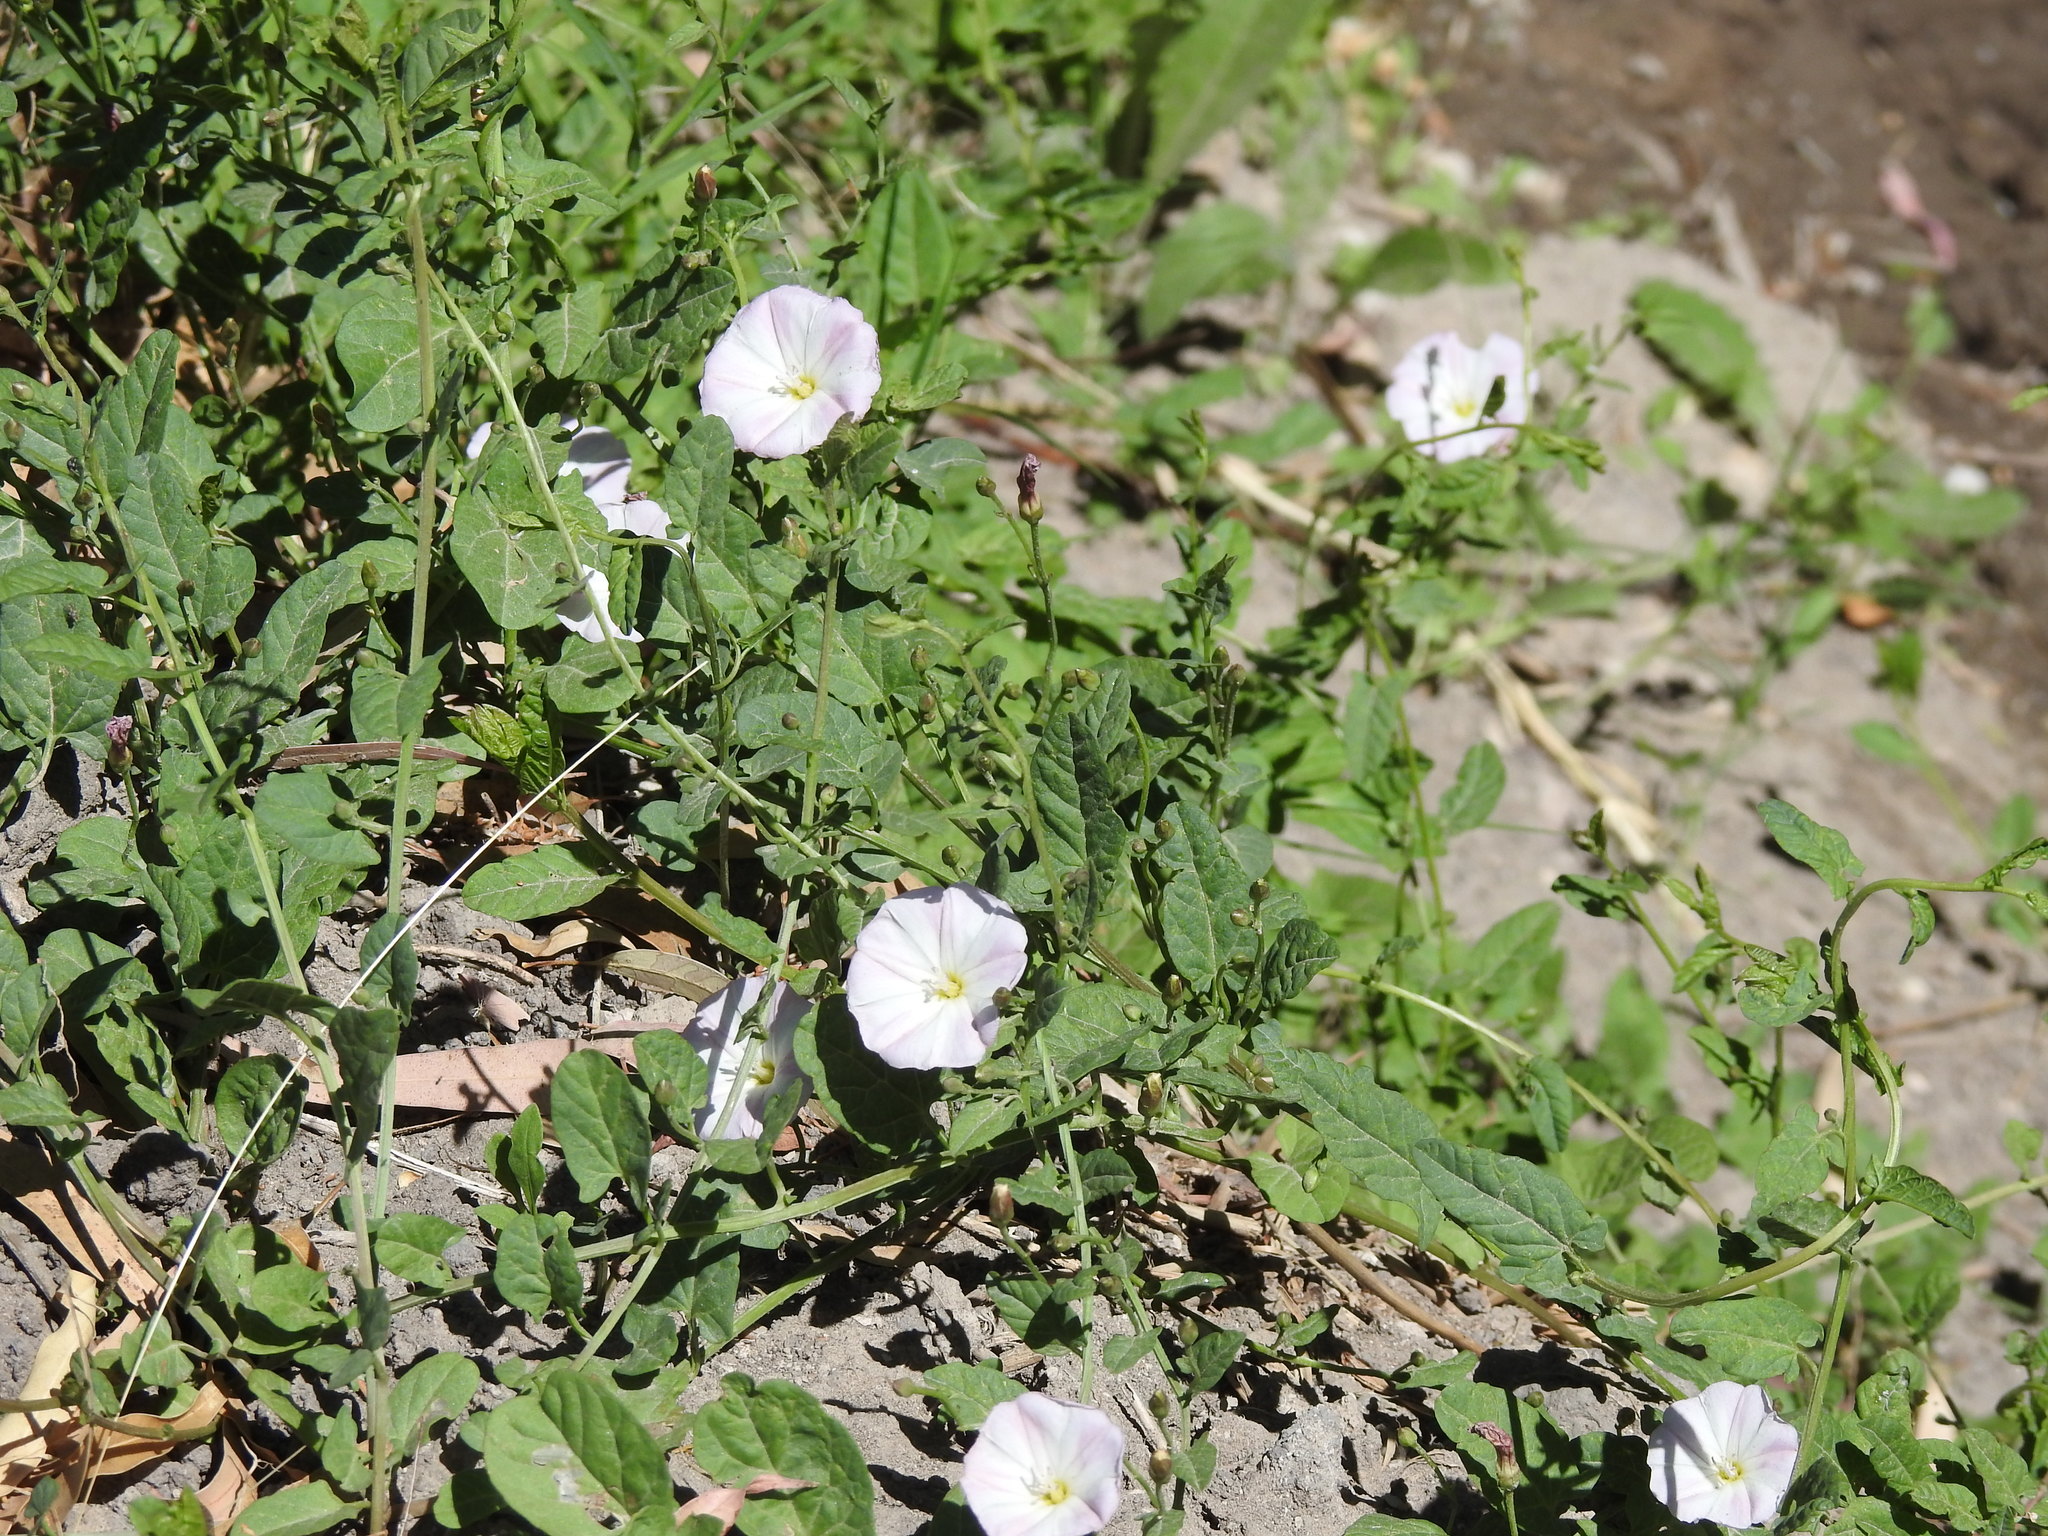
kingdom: Plantae
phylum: Tracheophyta
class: Magnoliopsida
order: Solanales
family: Convolvulaceae
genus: Convolvulus
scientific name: Convolvulus arvensis
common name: Field bindweed
